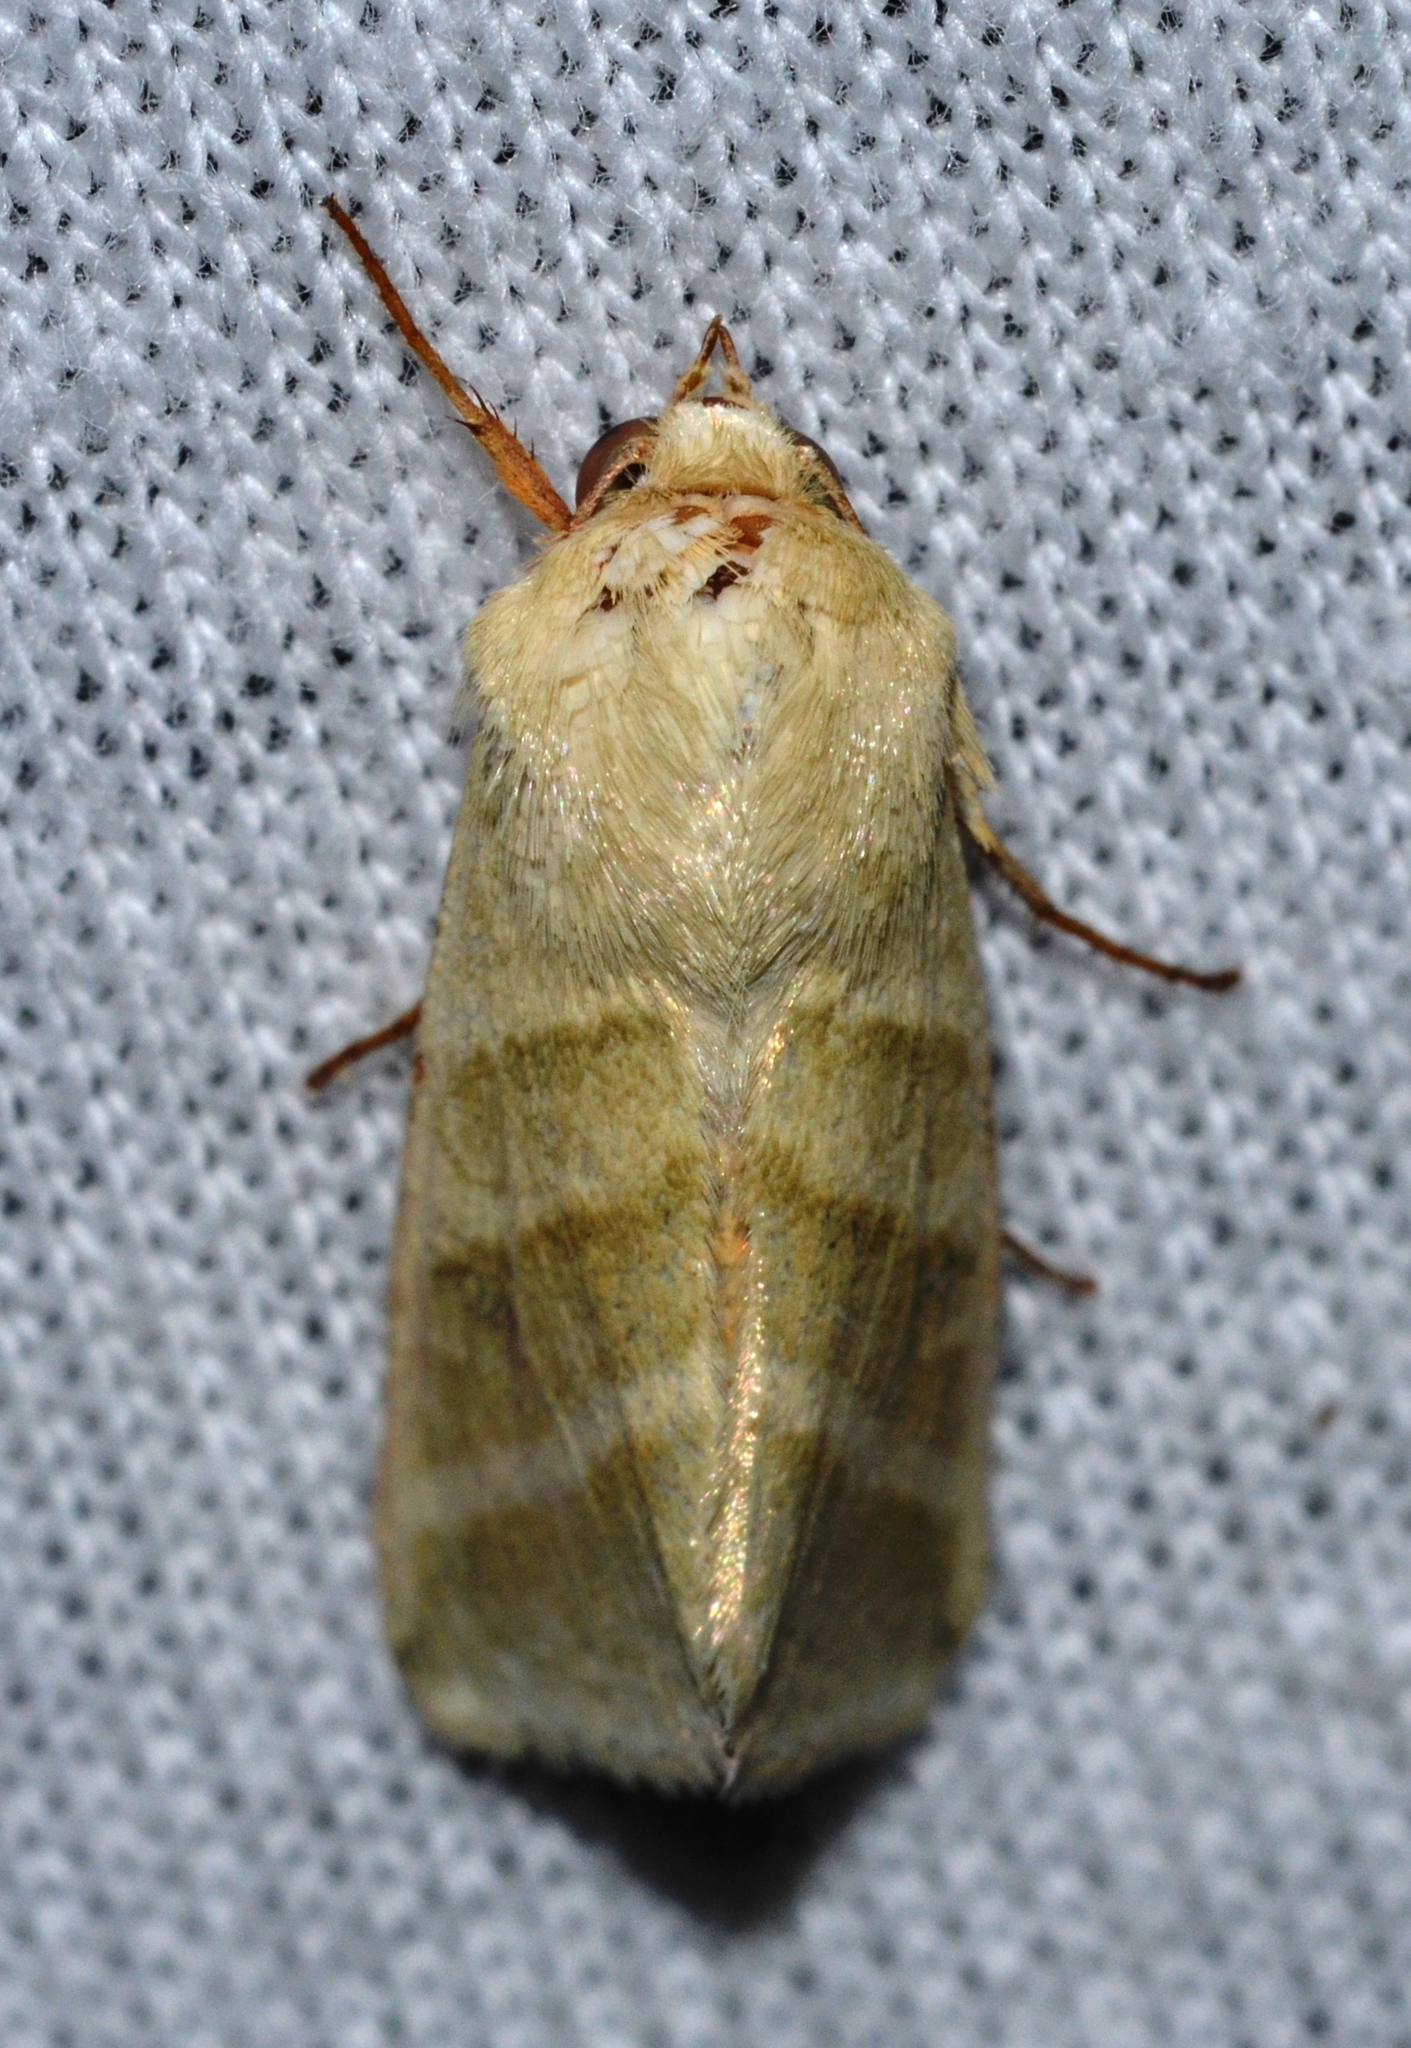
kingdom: Animalia
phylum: Arthropoda
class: Insecta
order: Lepidoptera
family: Noctuidae
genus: Chloridea
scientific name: Chloridea virescens
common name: Tobacco budworm
